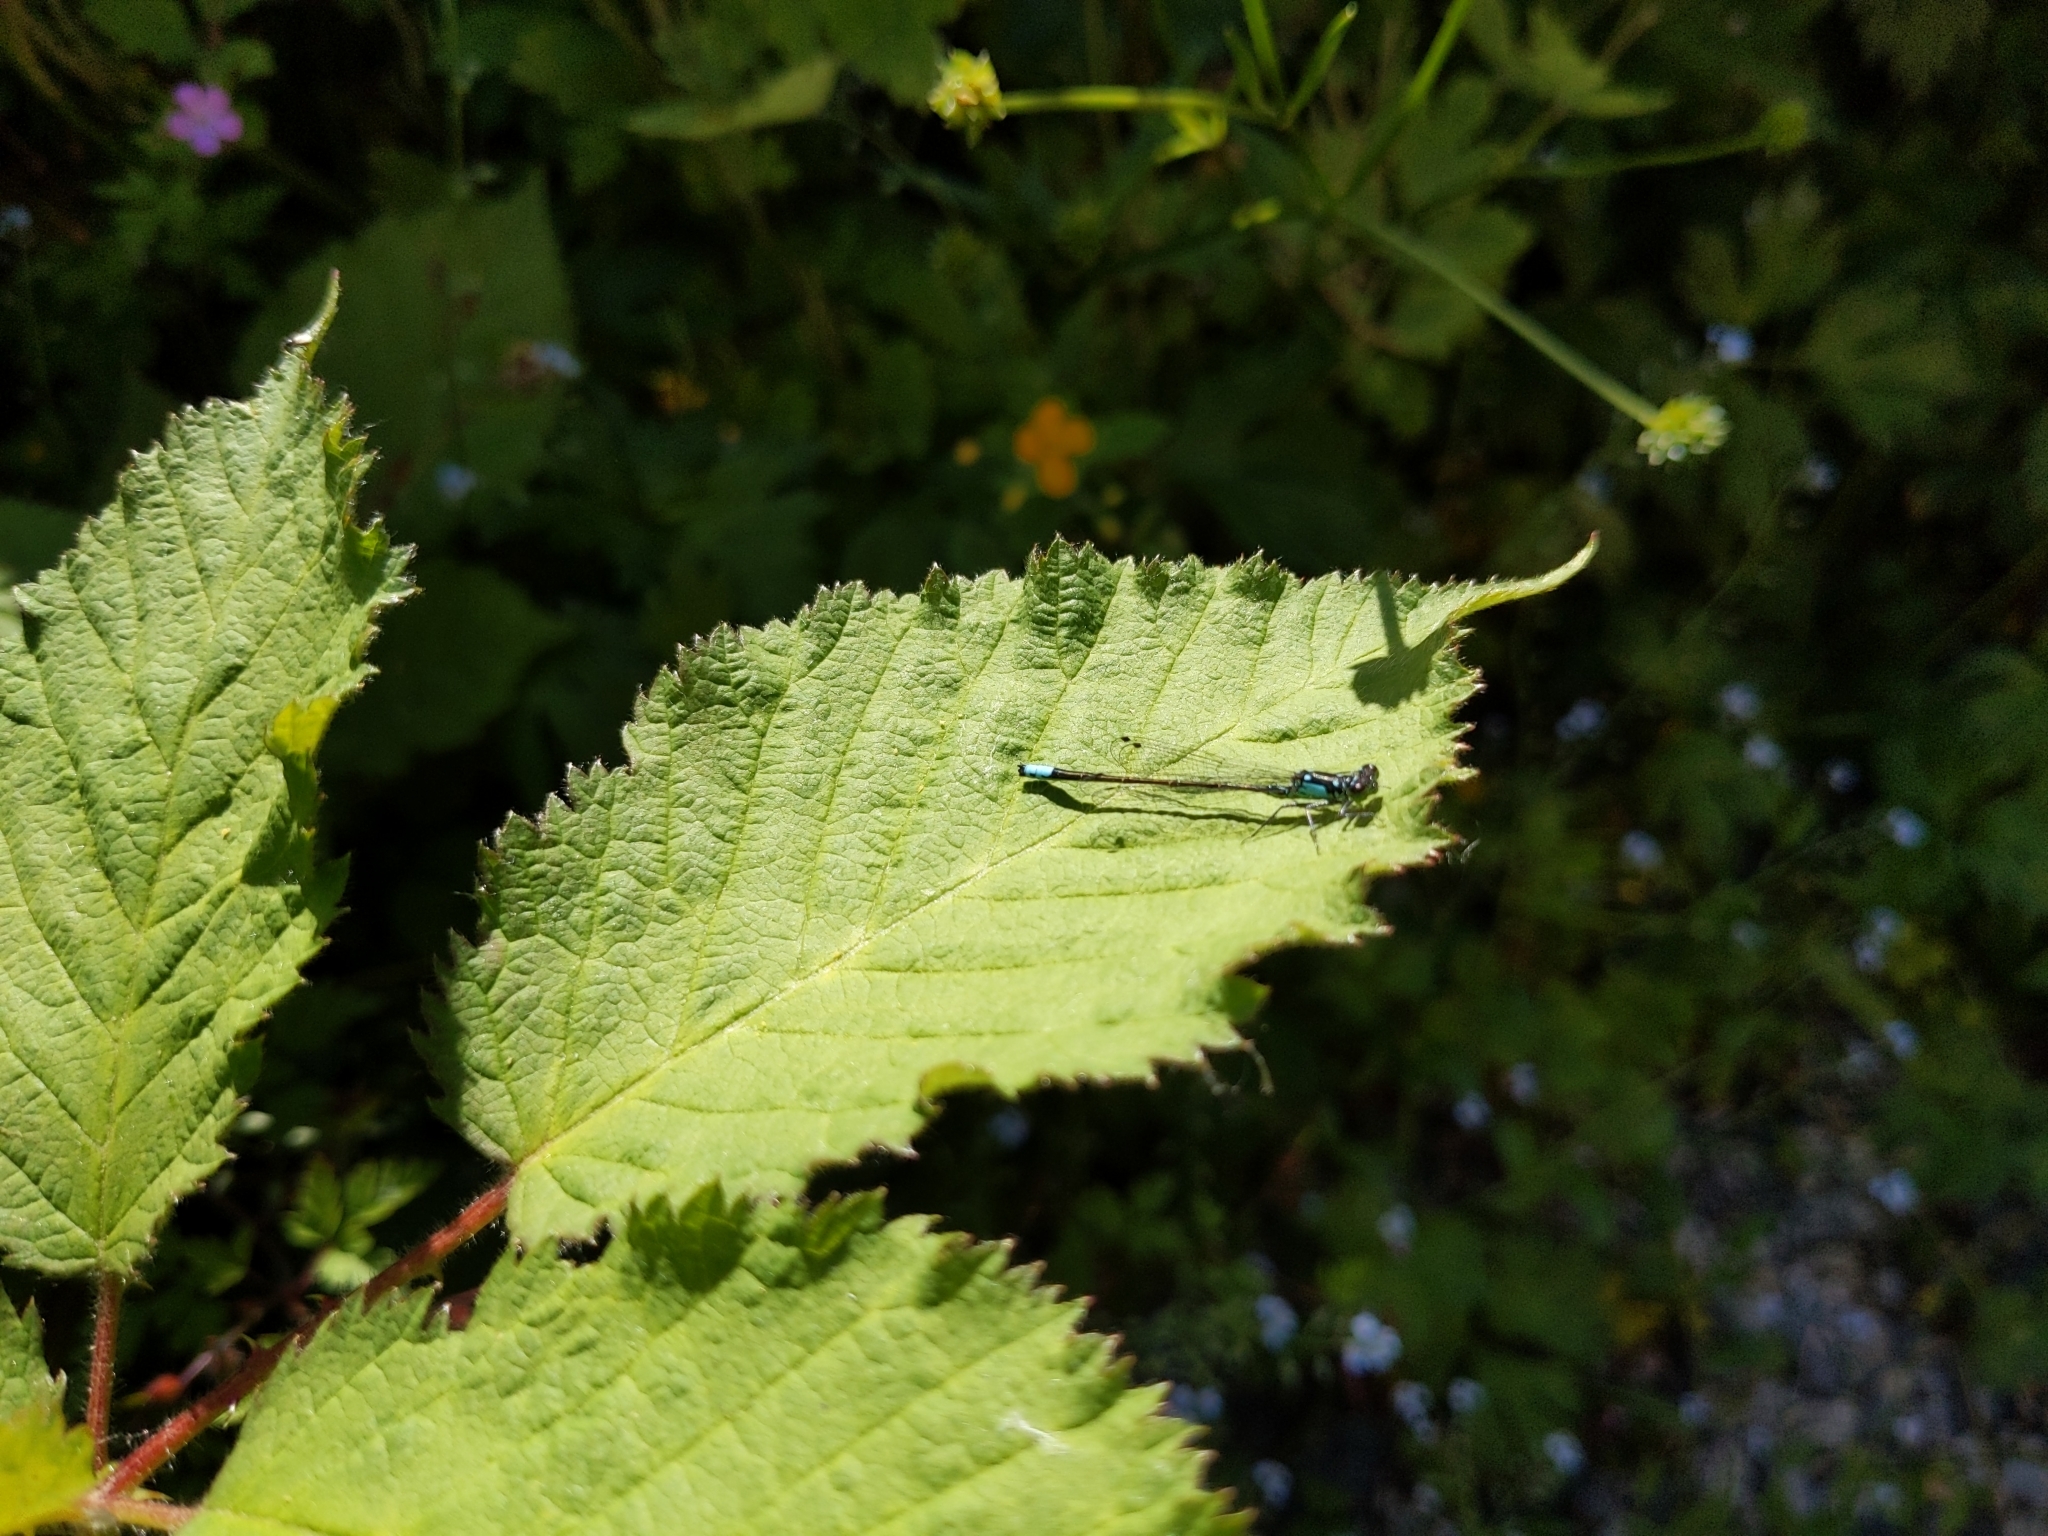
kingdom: Animalia
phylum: Arthropoda
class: Insecta
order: Odonata
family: Coenagrionidae
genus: Ischnura
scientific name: Ischnura cervula
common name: Pacific forktail
